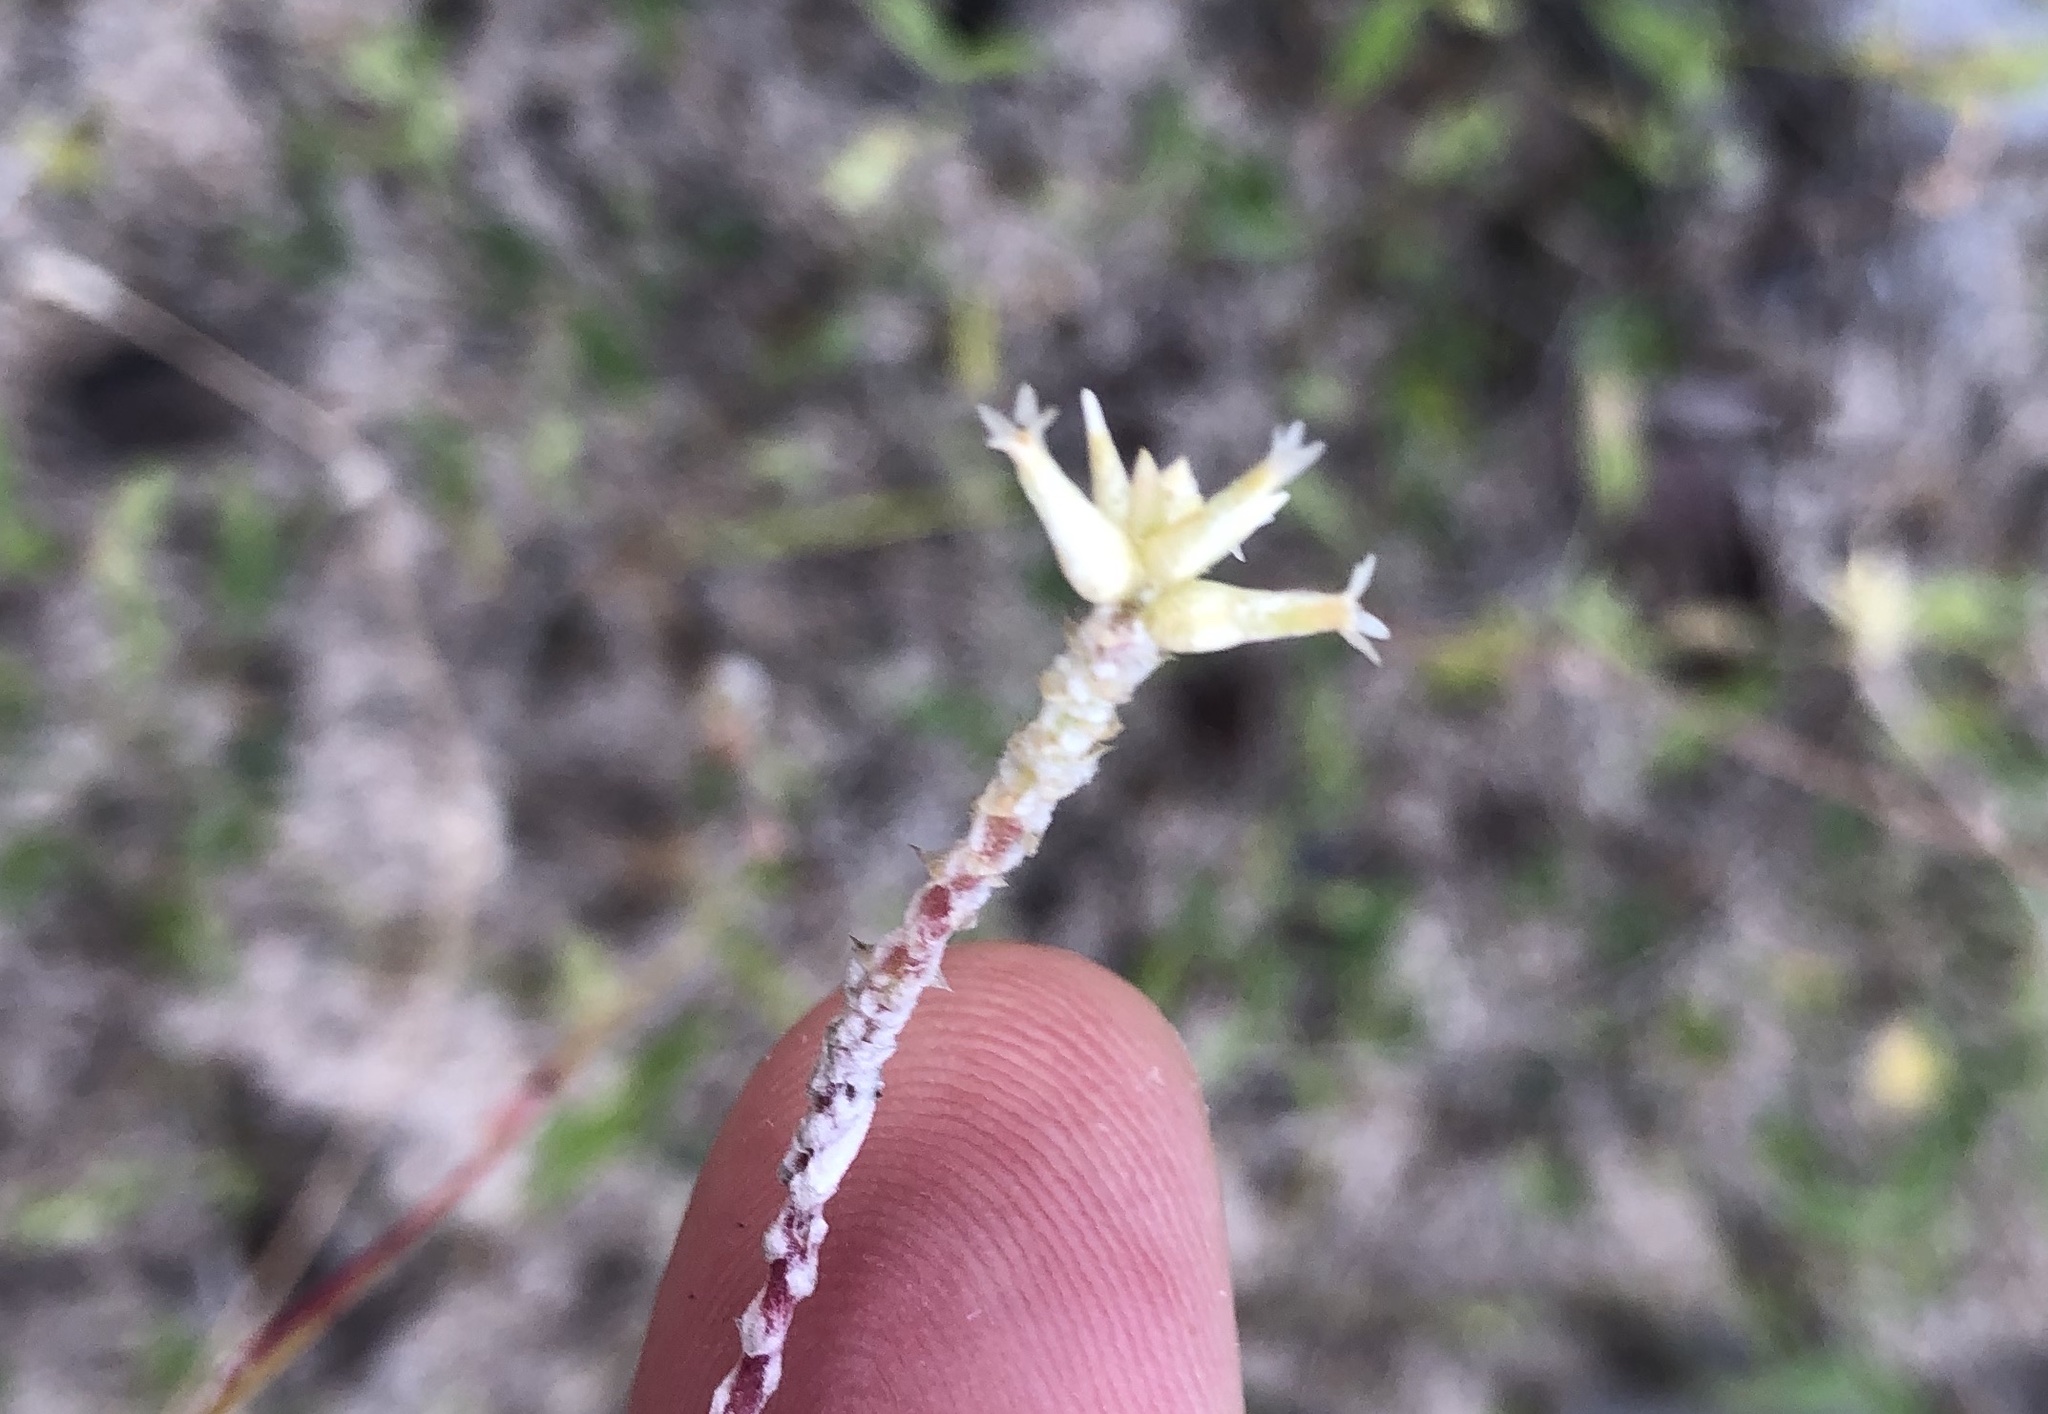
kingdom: Plantae
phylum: Tracheophyta
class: Magnoliopsida
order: Caryophyllales
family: Amaranthaceae
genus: Froelichia
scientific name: Froelichia humboldtiana
